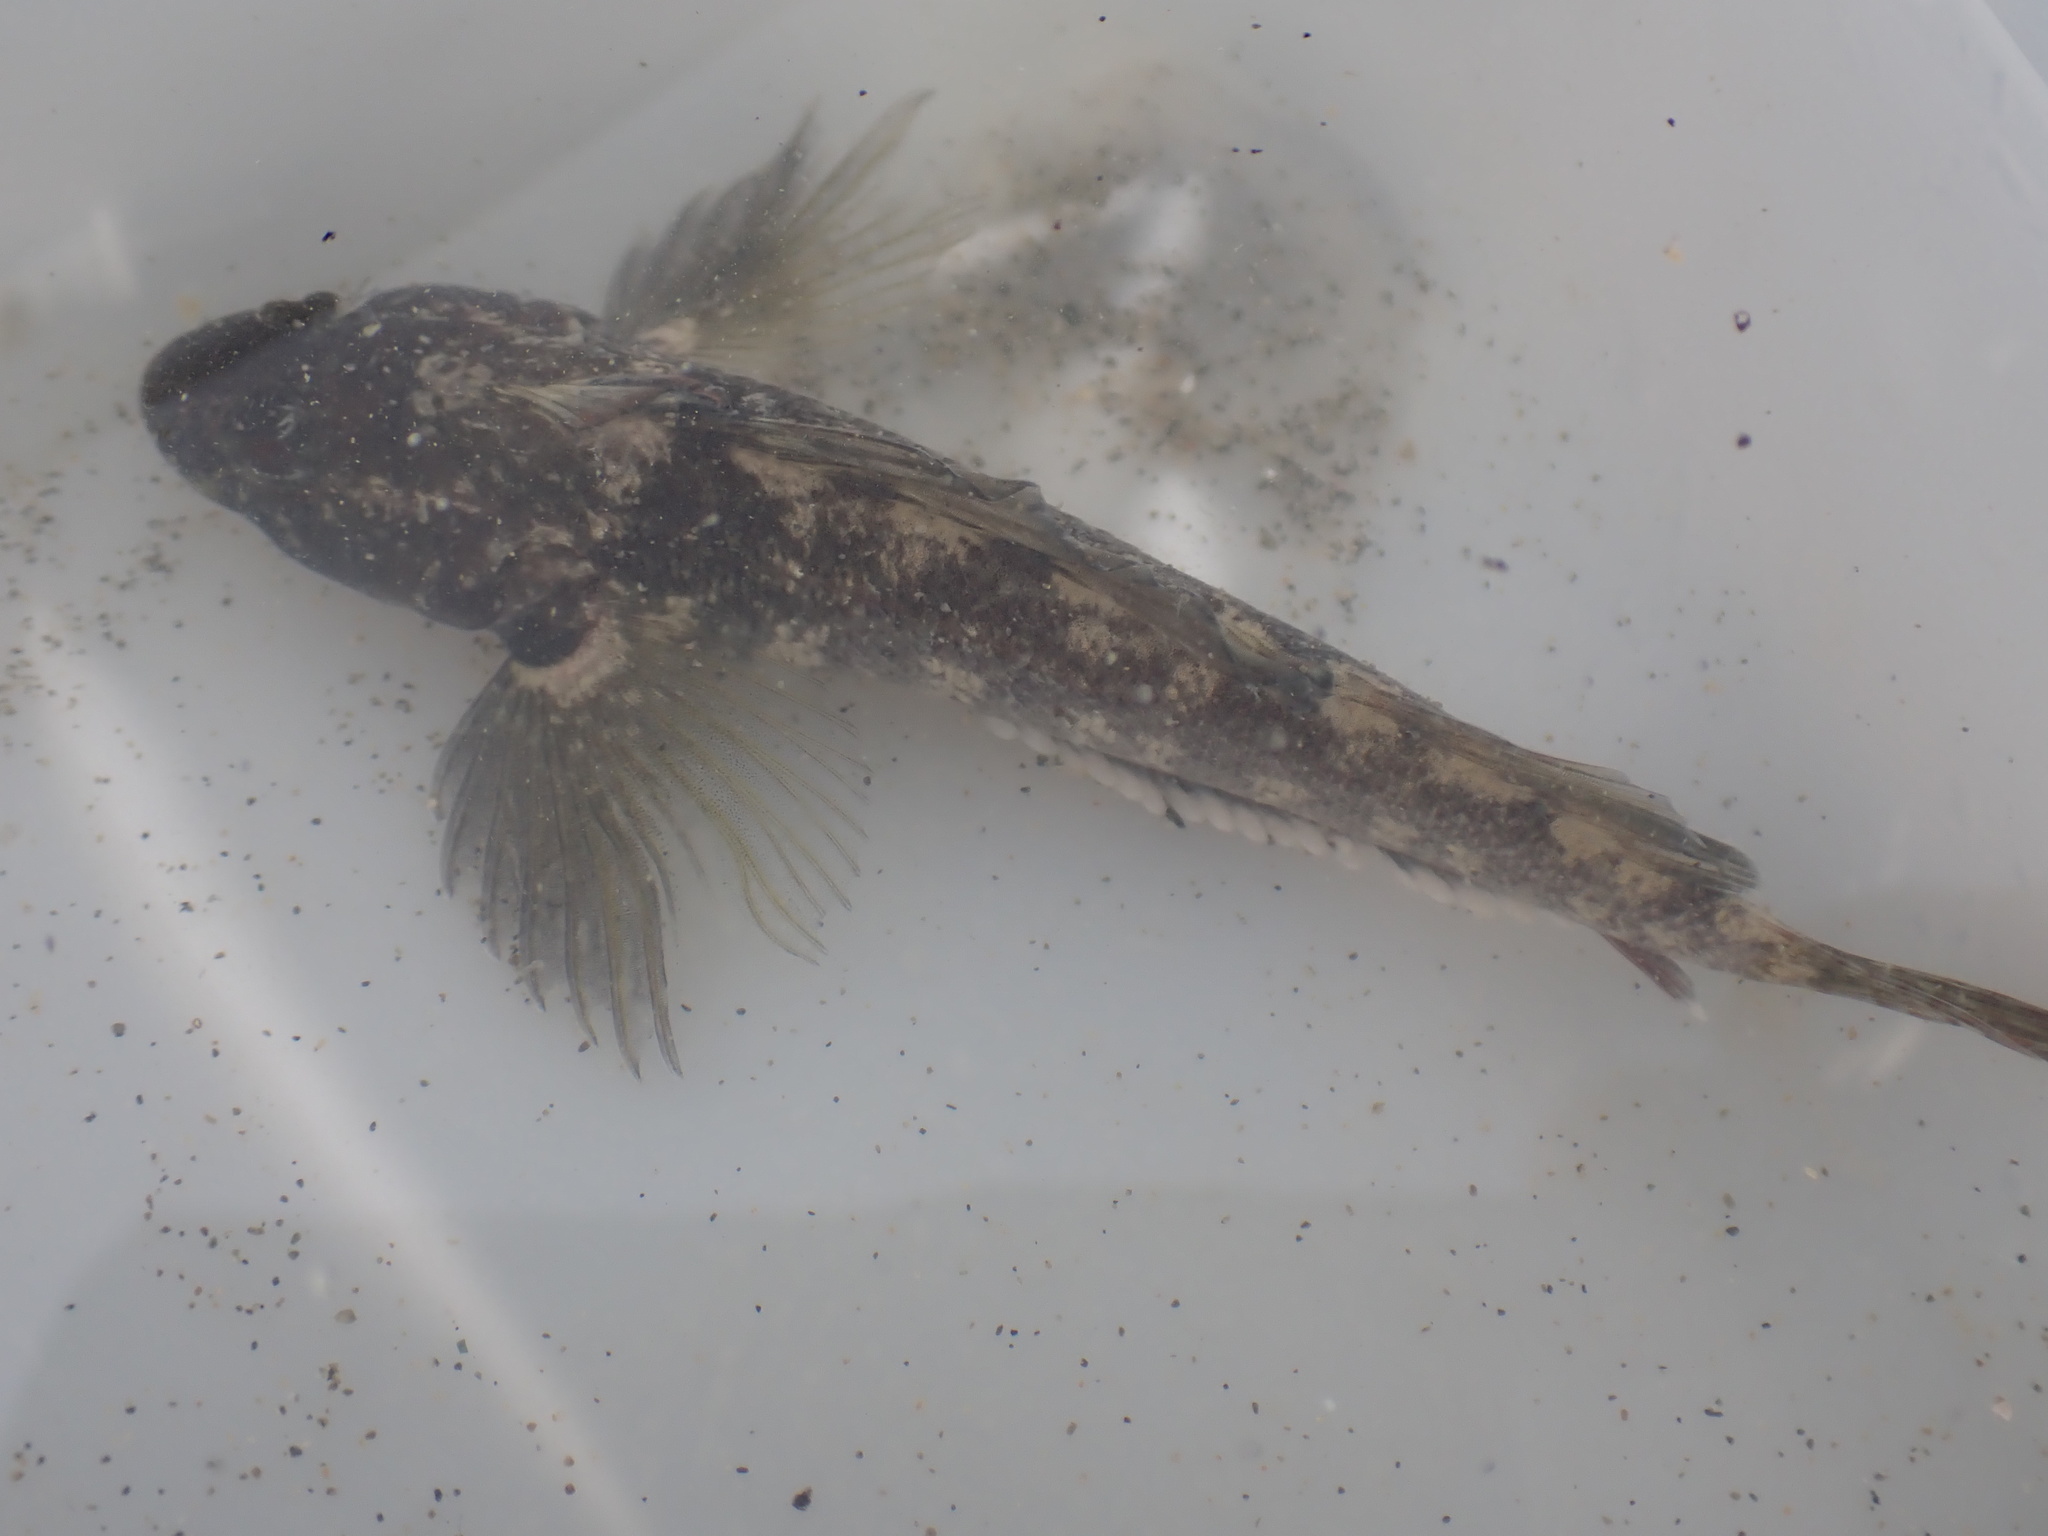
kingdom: Animalia
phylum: Chordata
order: Perciformes
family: Tripterygiidae
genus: Forsterygion
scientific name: Forsterygion capito
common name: Spotted robust triplefin
